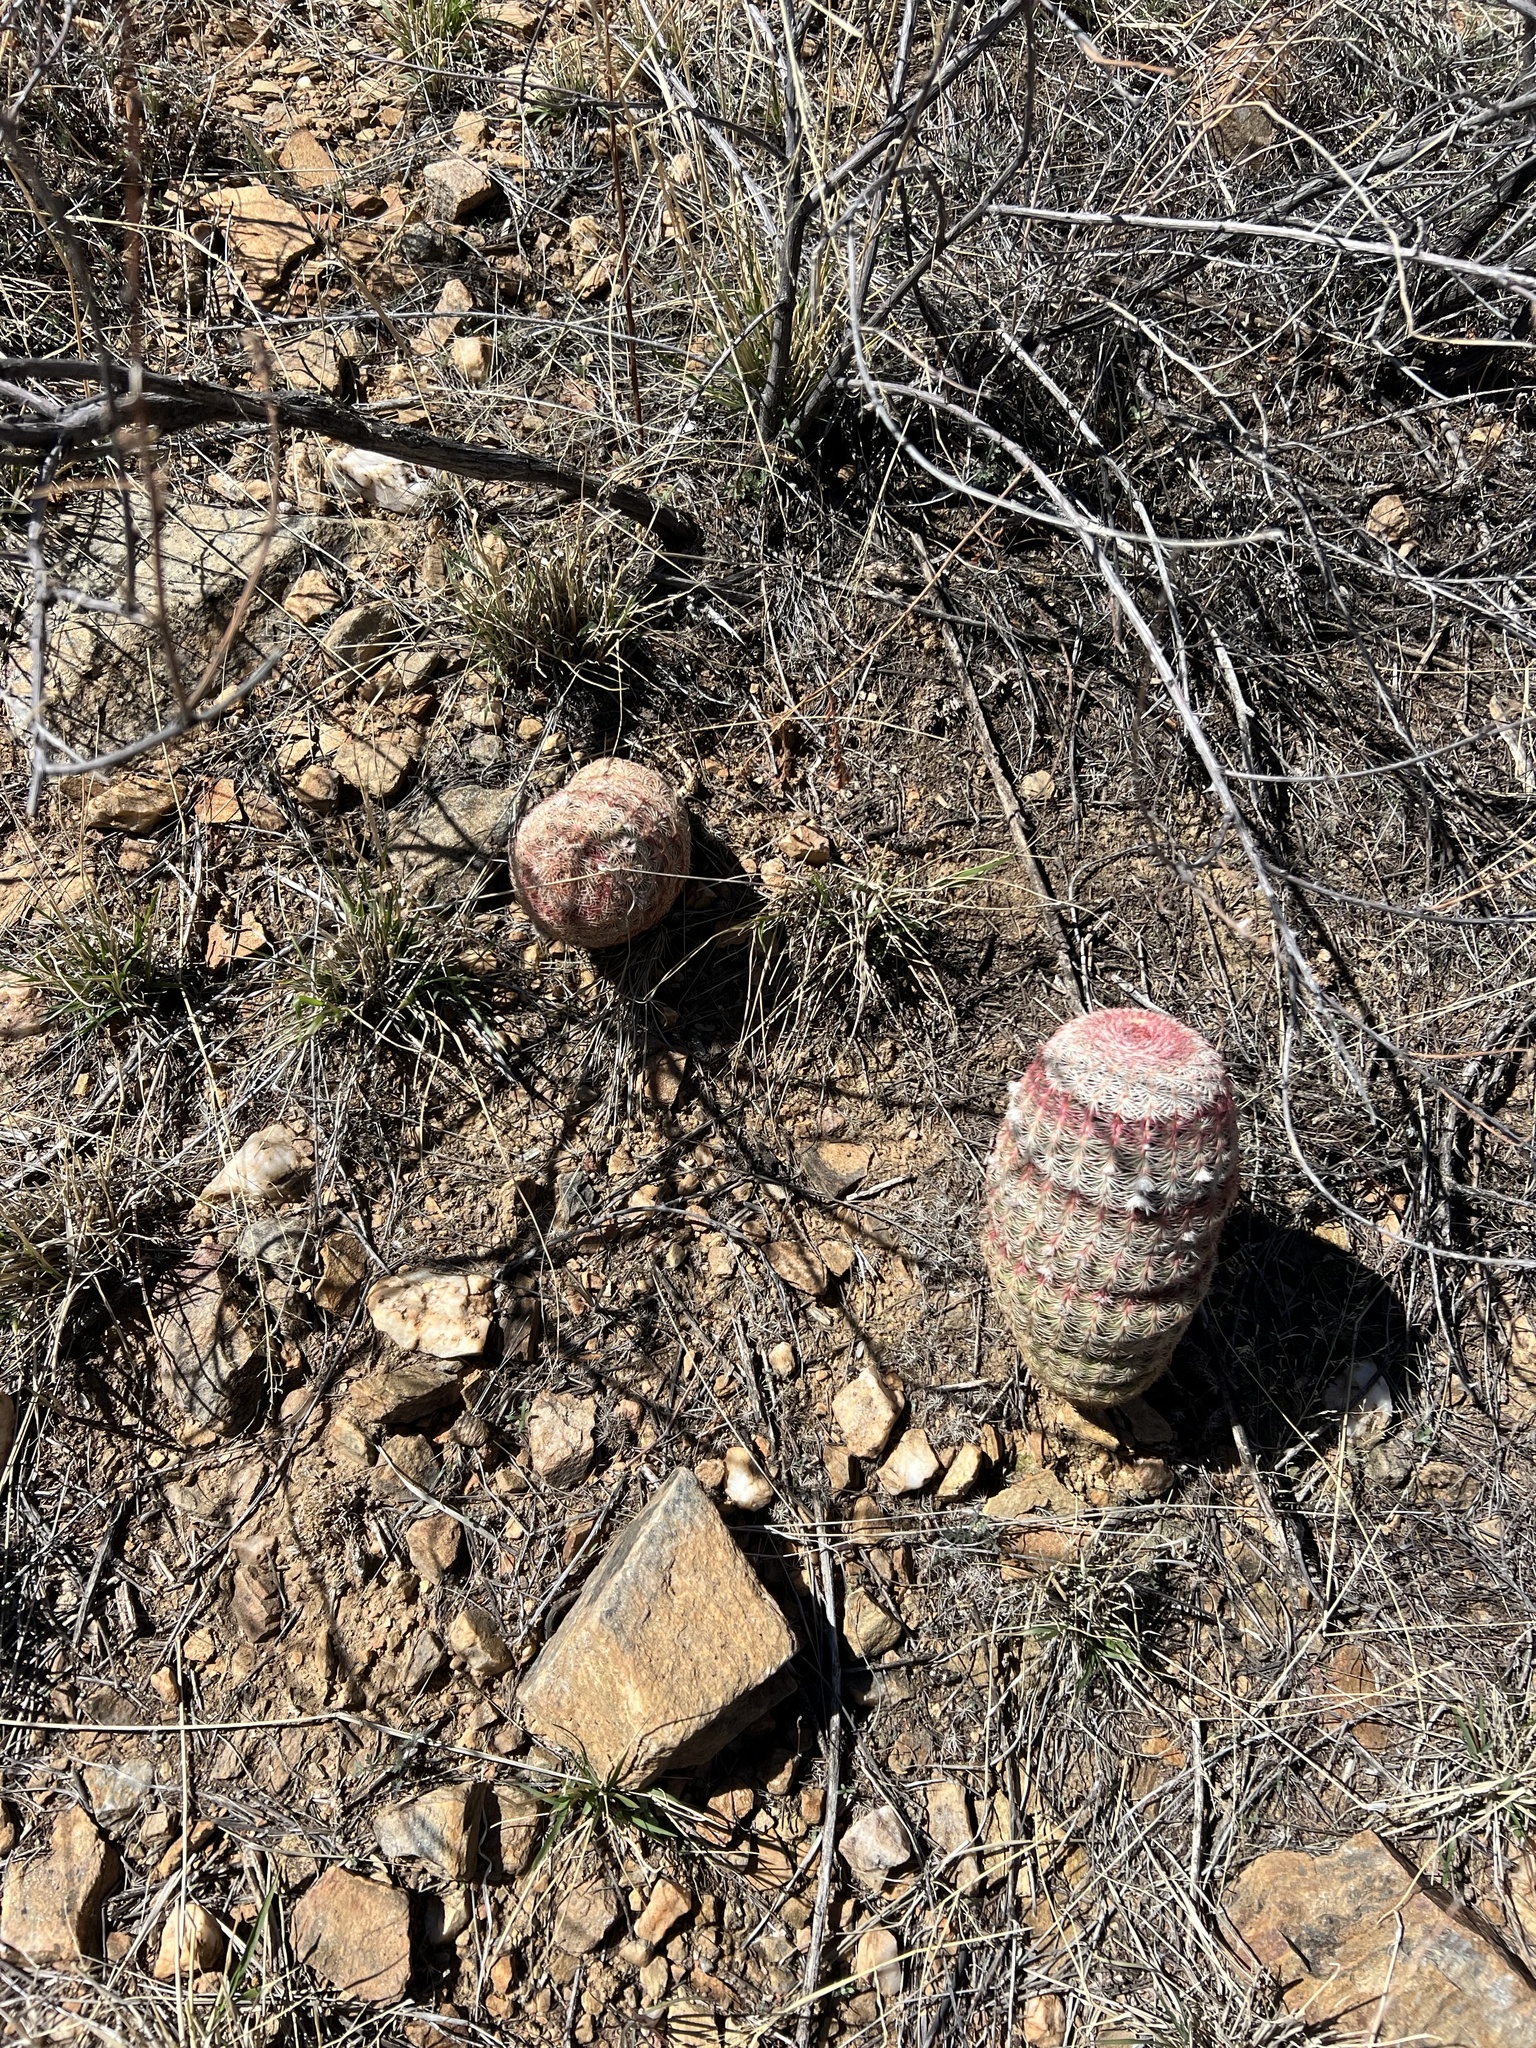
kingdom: Plantae
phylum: Tracheophyta
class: Magnoliopsida
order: Caryophyllales
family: Cactaceae
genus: Echinocereus
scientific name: Echinocereus rigidissimus
